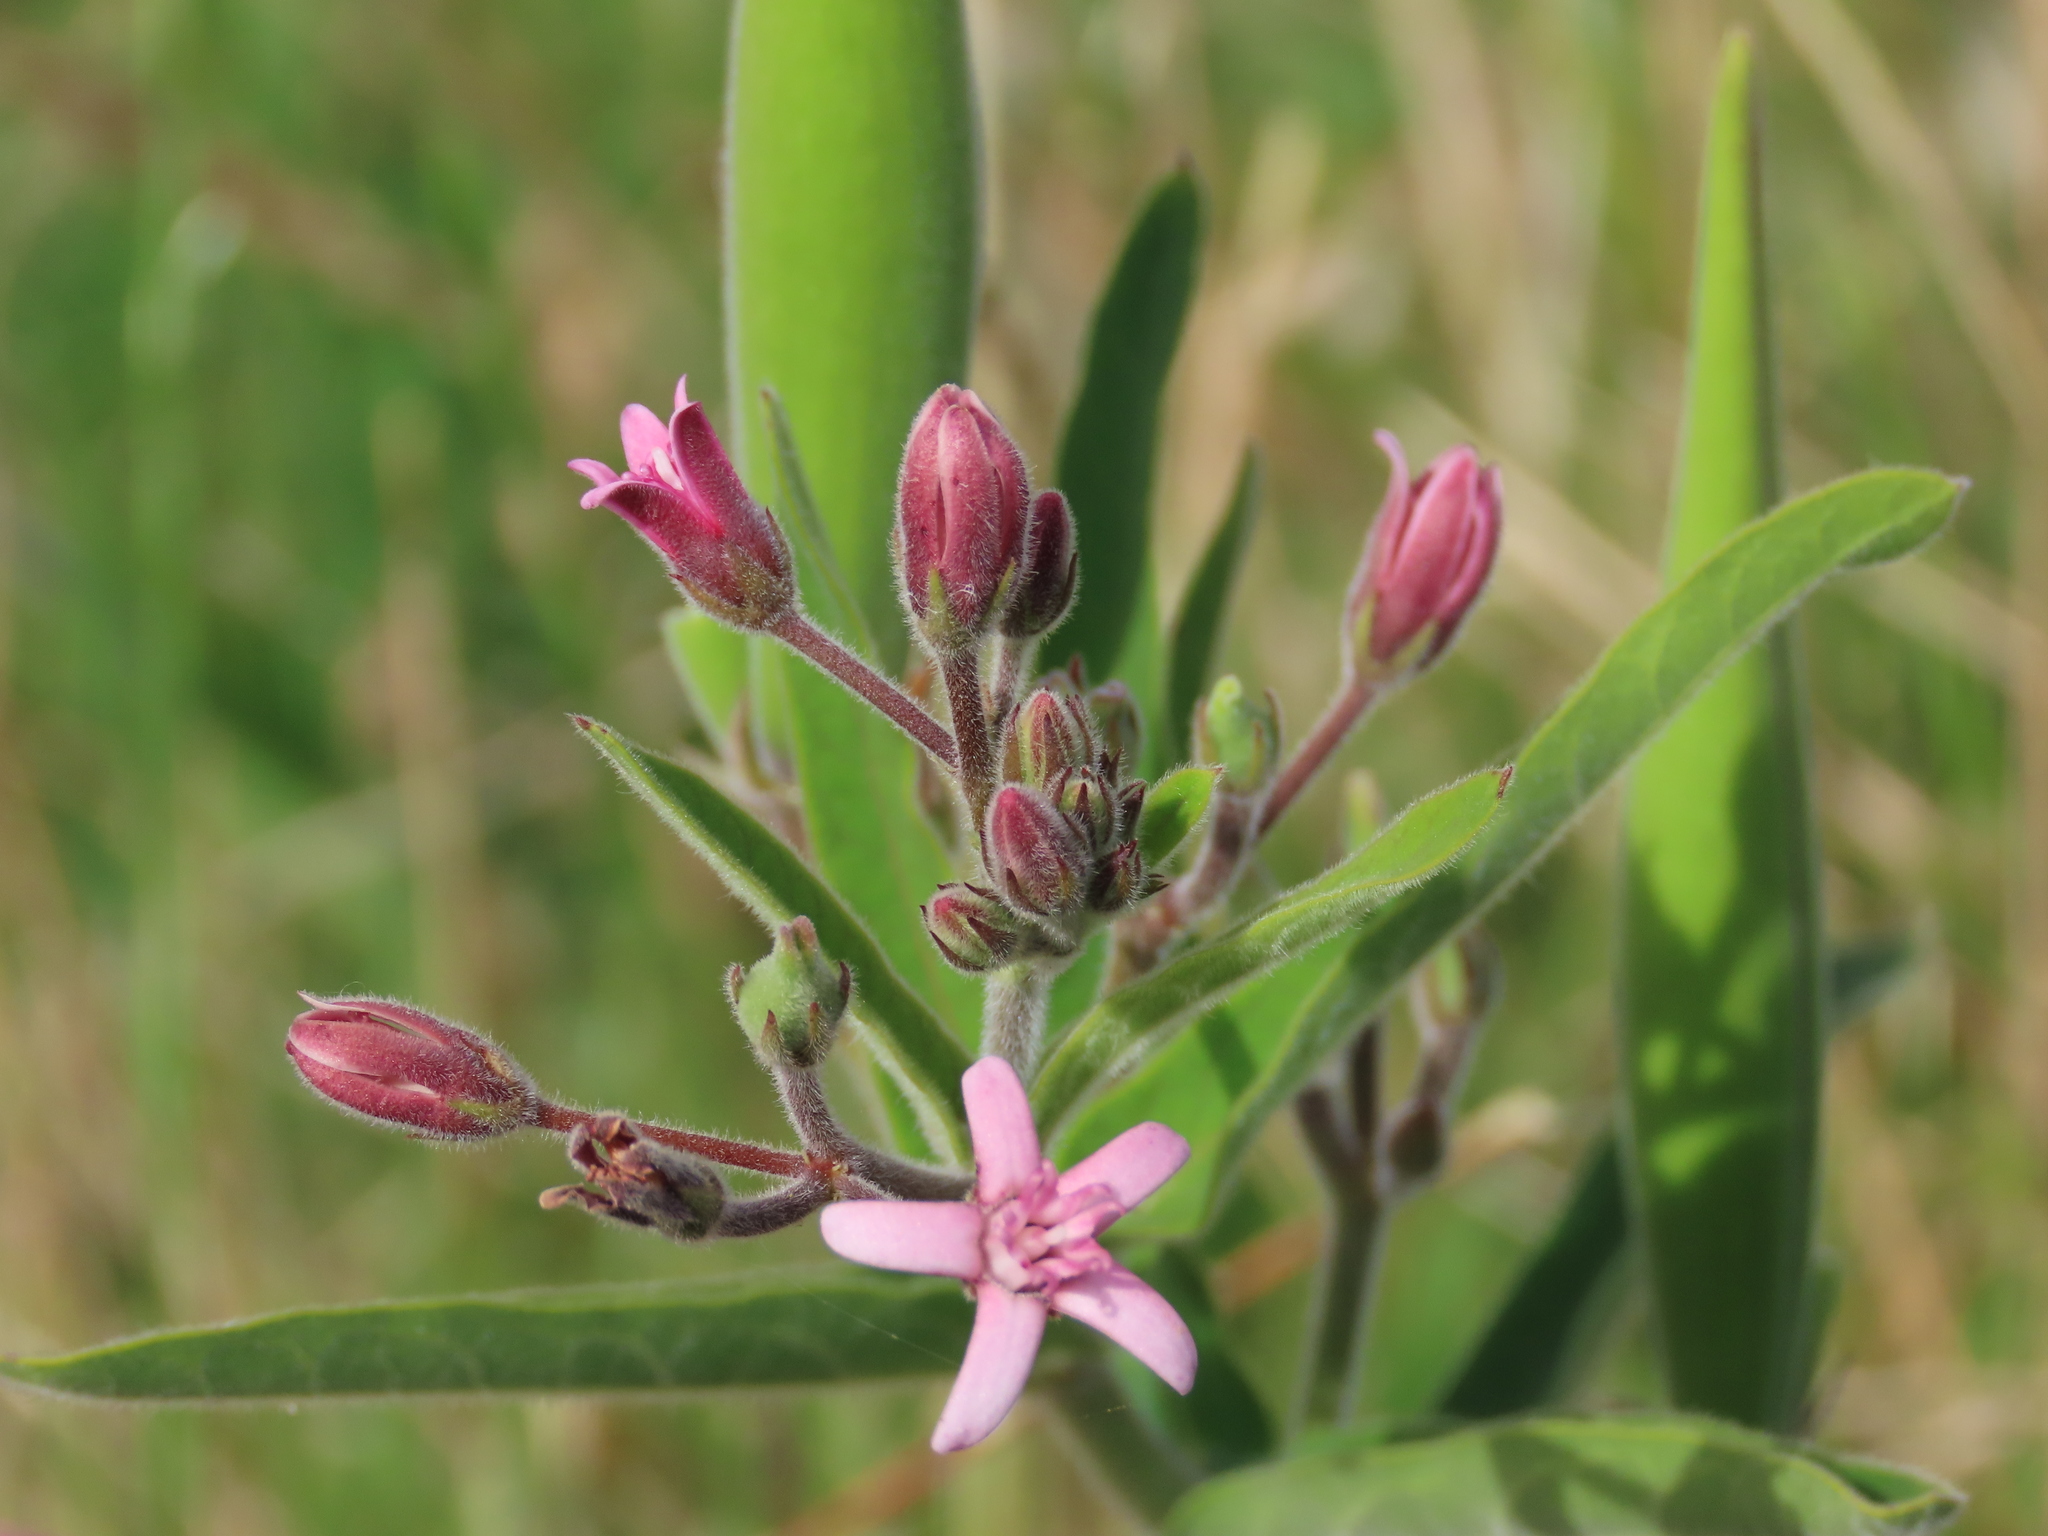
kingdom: Plantae
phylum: Tracheophyta
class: Magnoliopsida
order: Gentianales
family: Apocynaceae
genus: Oxypetalum
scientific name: Oxypetalum solanoides
